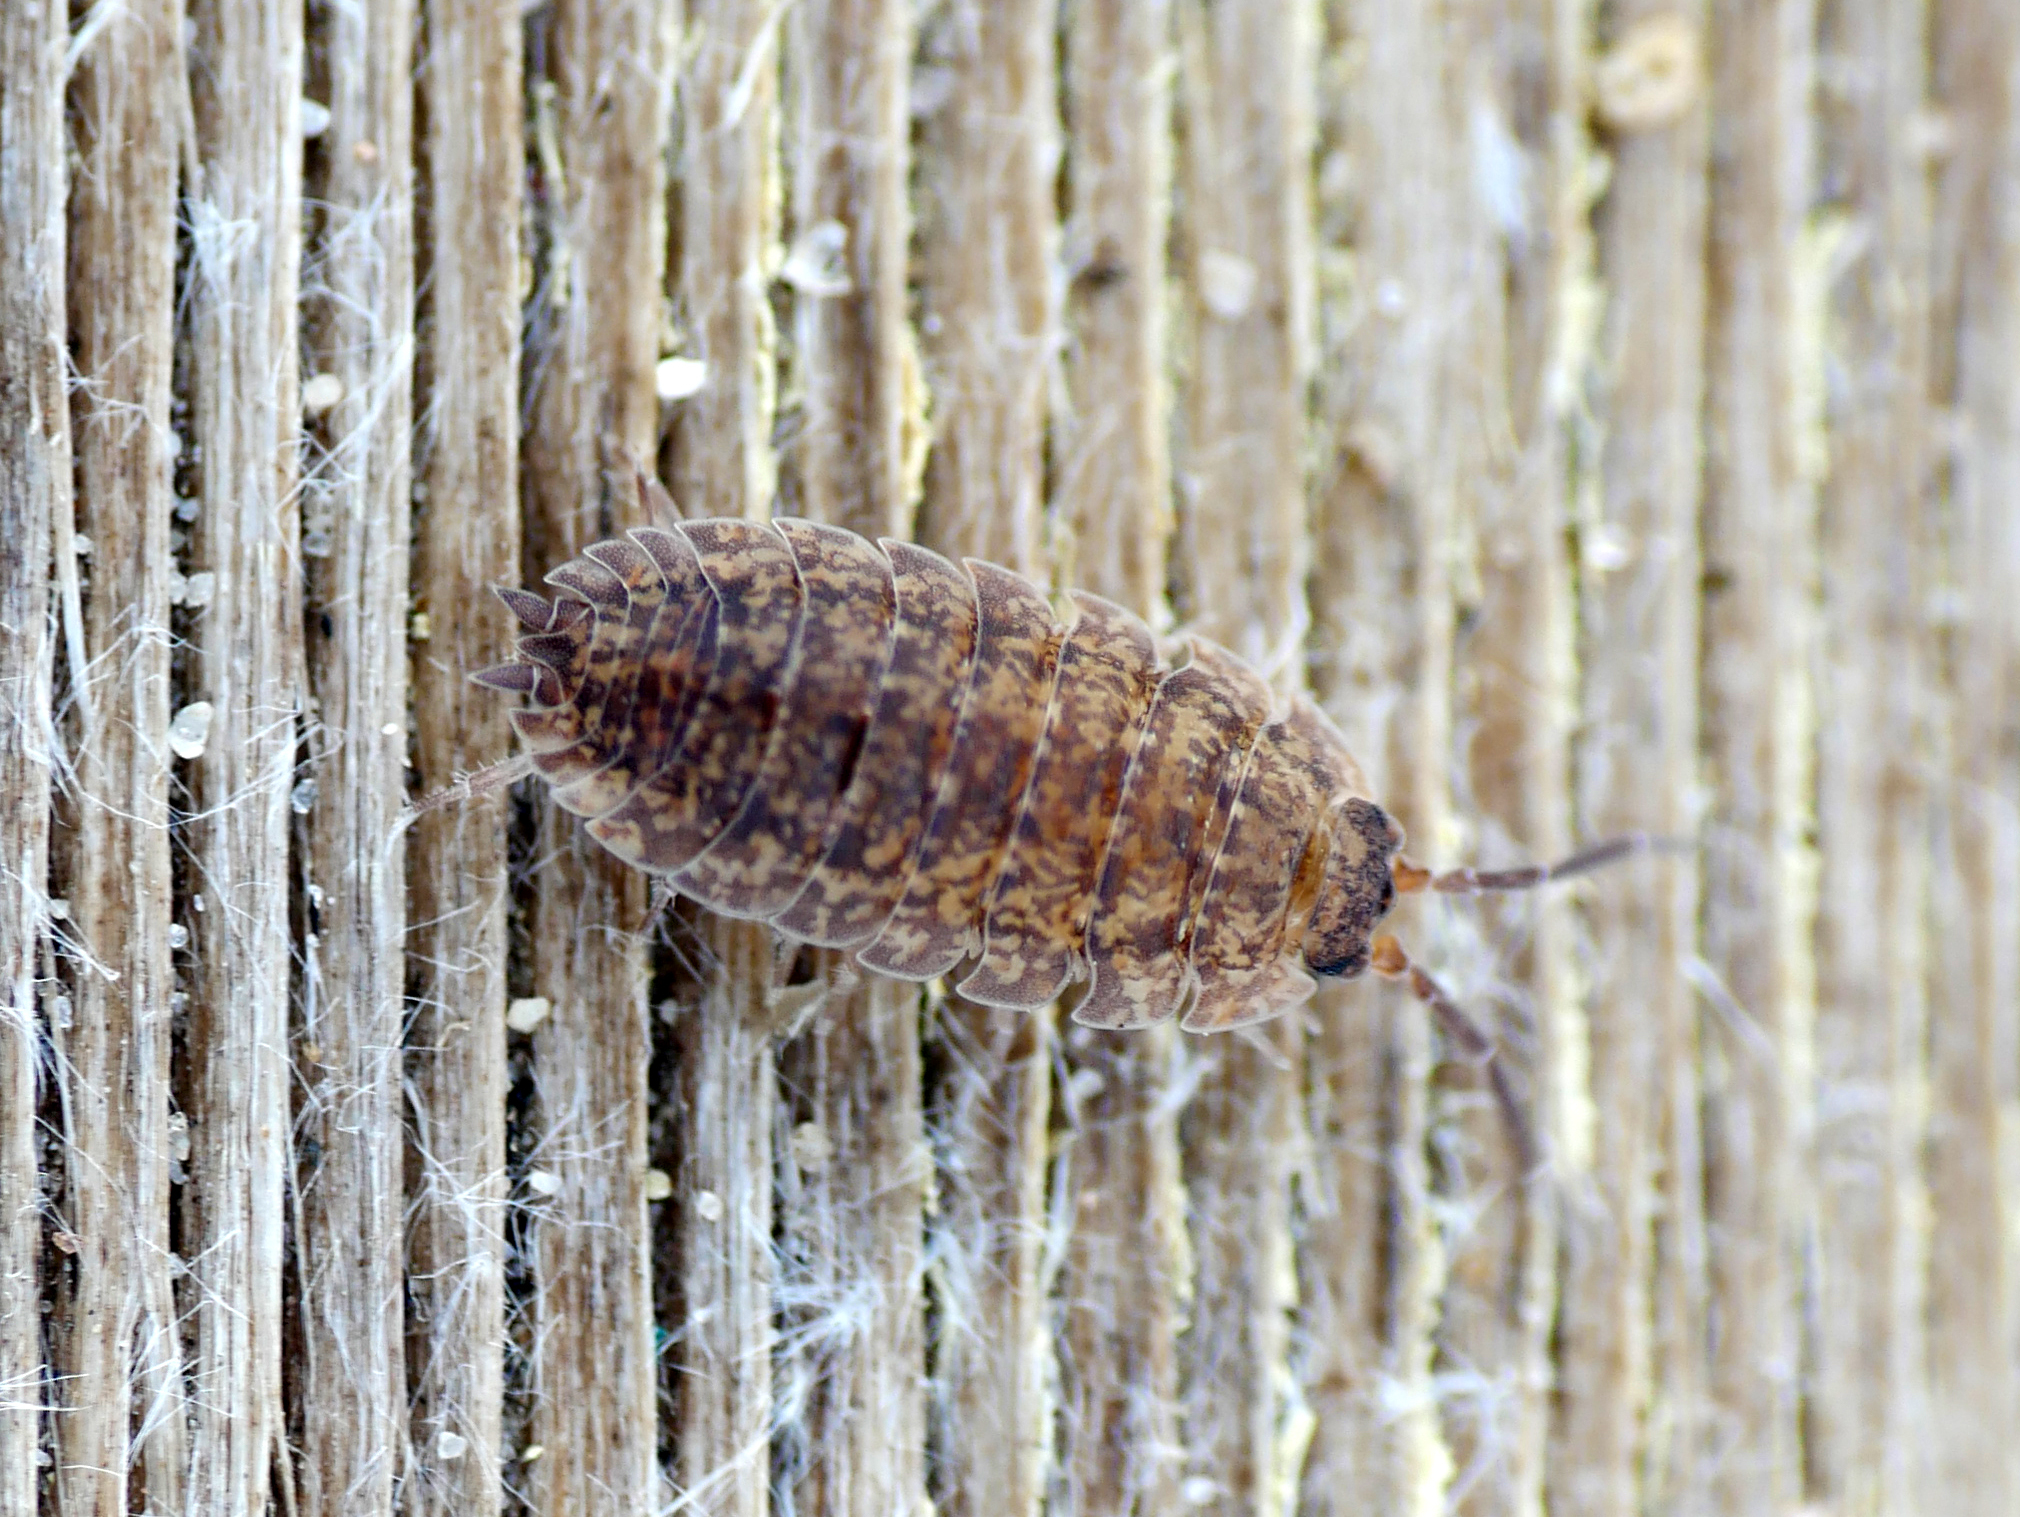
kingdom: Animalia
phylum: Arthropoda
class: Malacostraca
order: Isopoda
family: Porcellionidae
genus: Porcellio
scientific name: Porcellio scaber
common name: Common rough woodlouse
